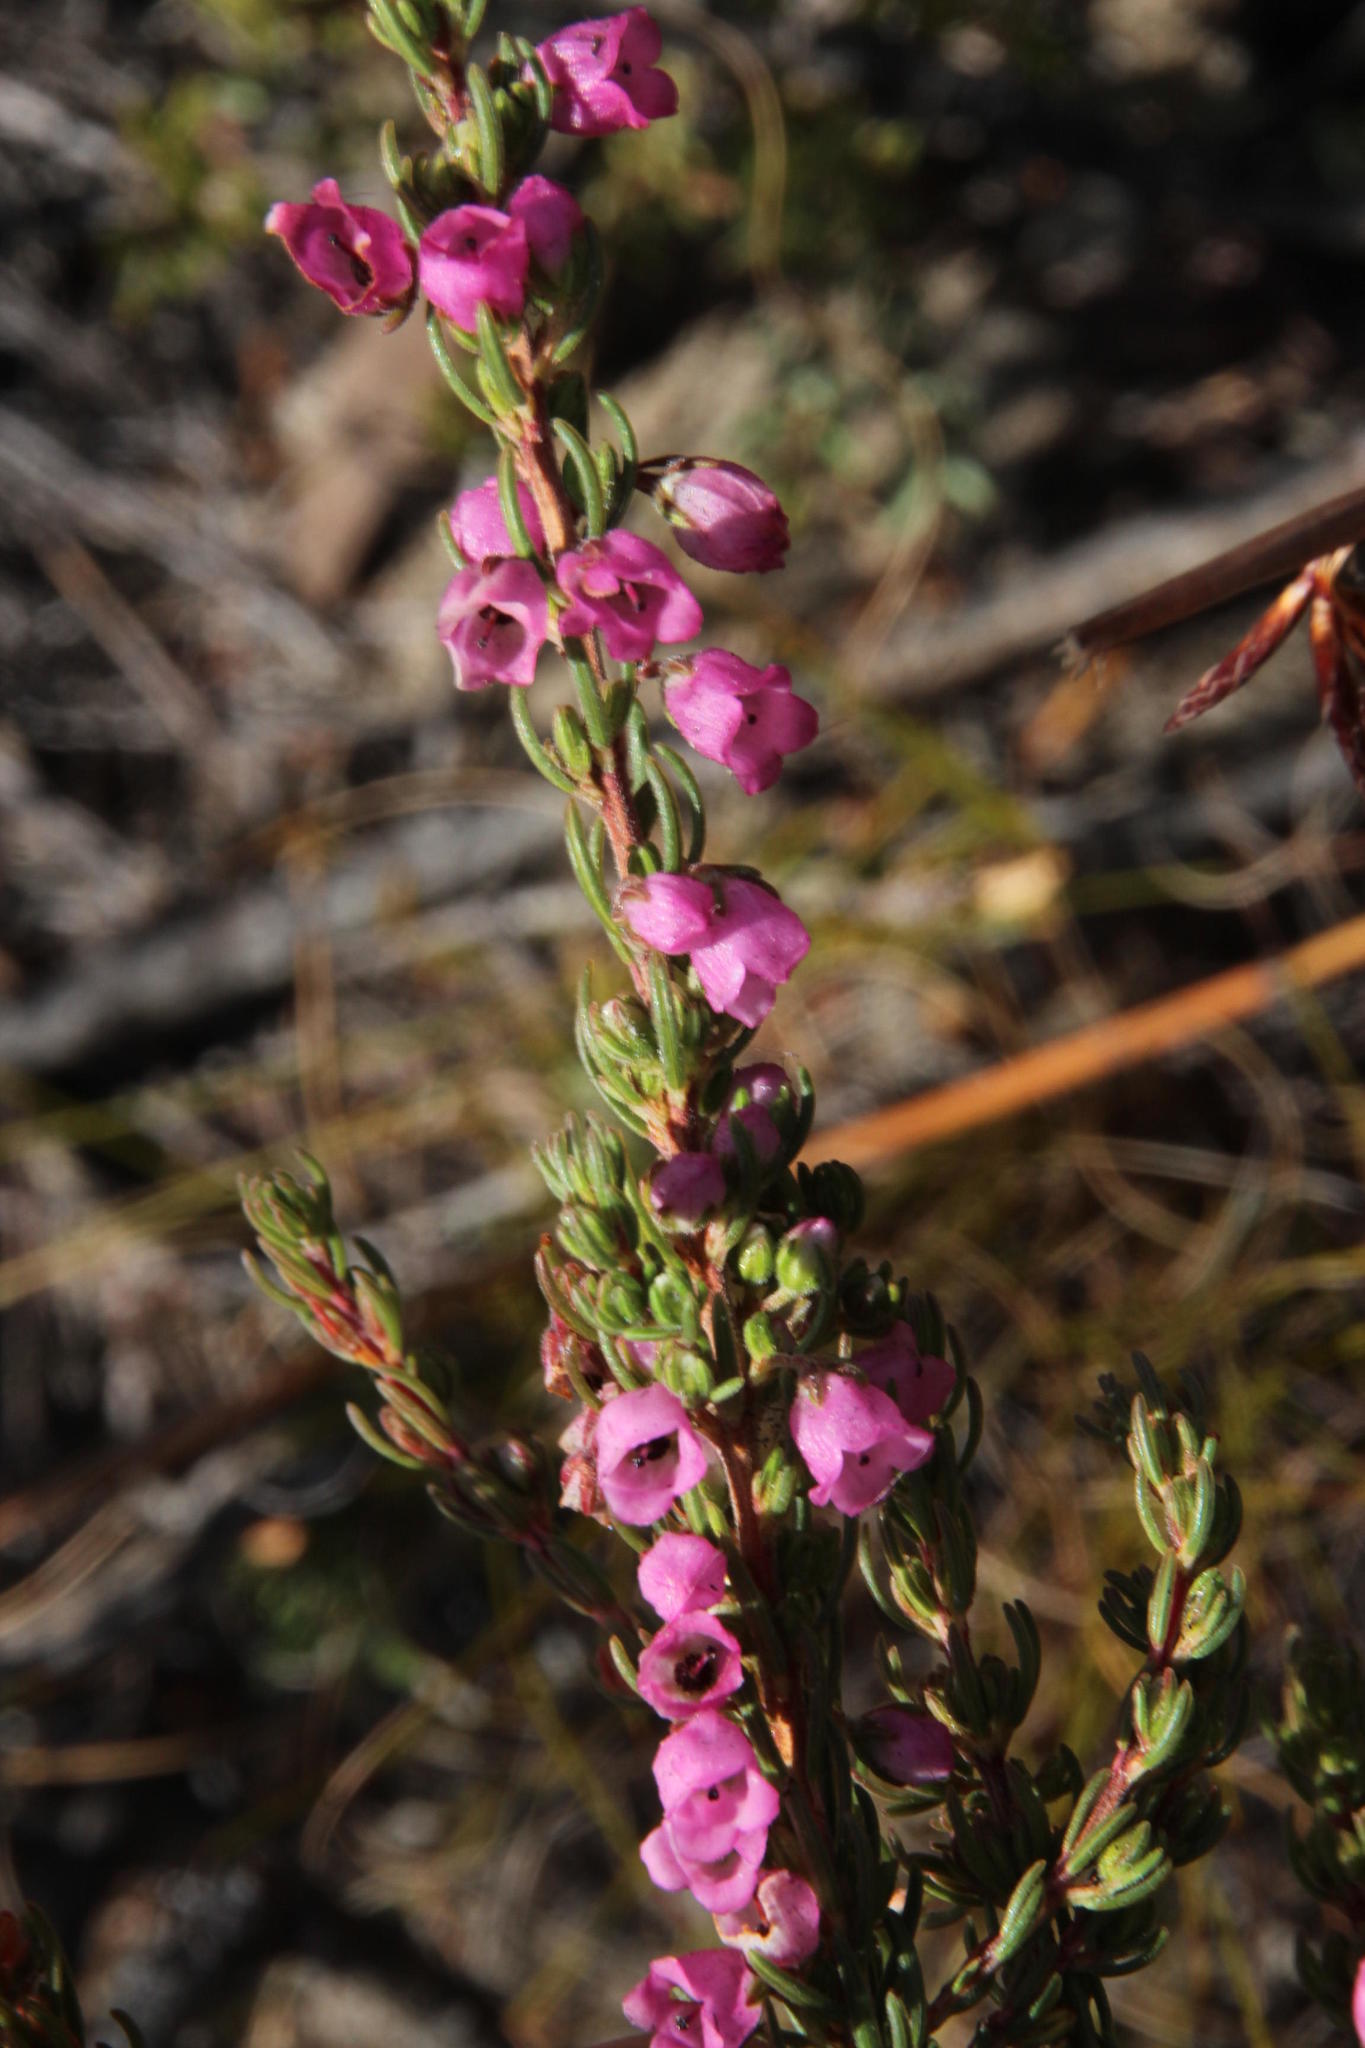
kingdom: Plantae
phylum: Tracheophyta
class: Magnoliopsida
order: Ericales
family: Ericaceae
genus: Erica
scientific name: Erica viscaria
